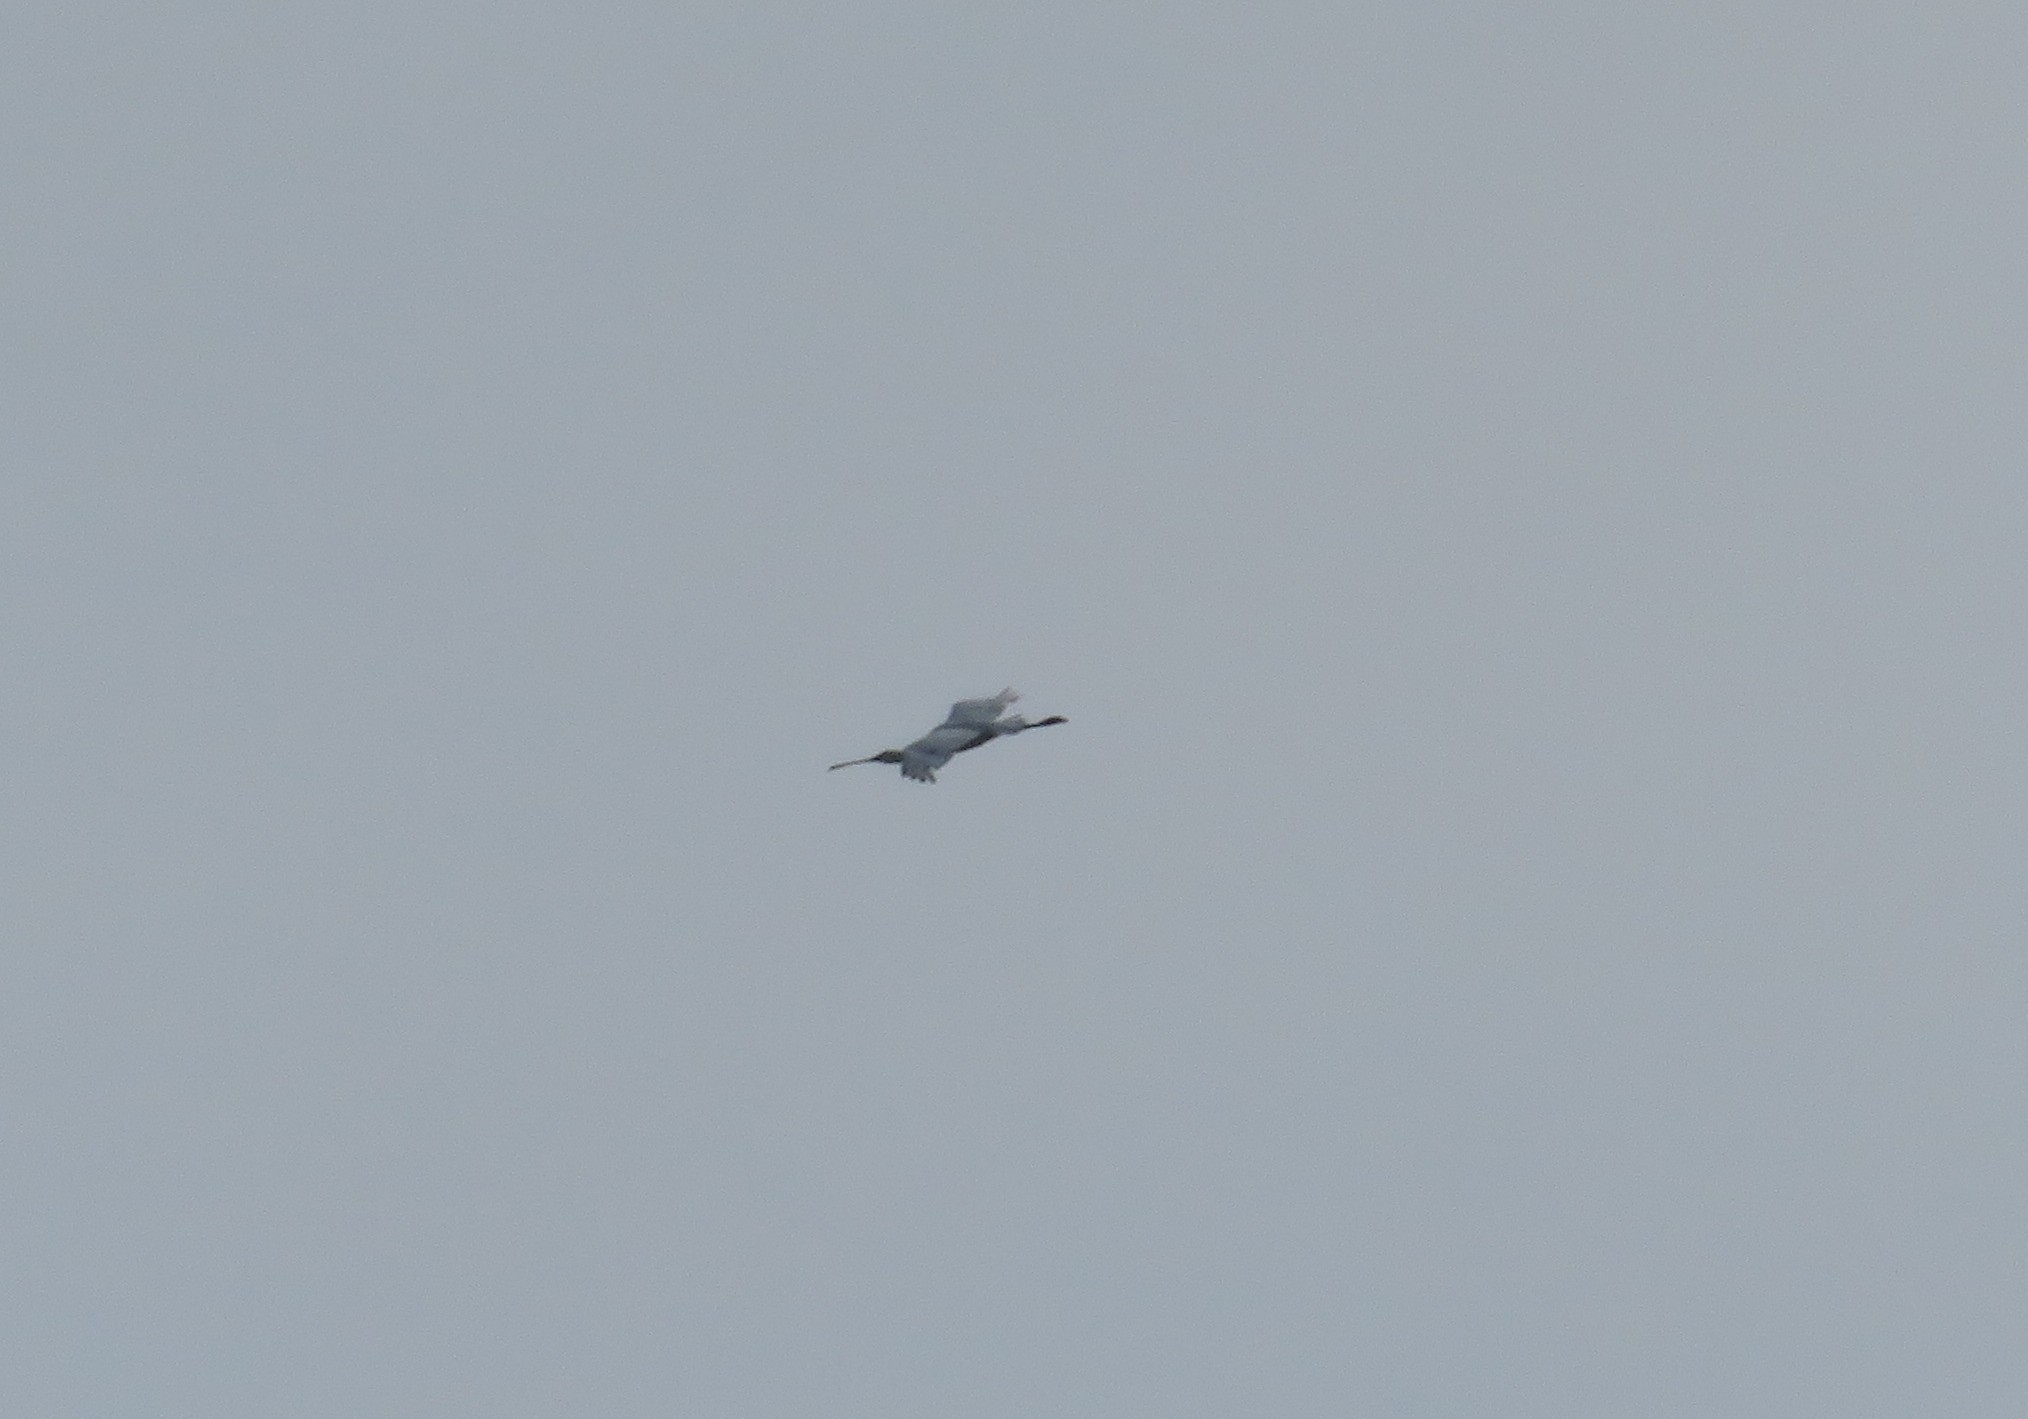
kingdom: Animalia
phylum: Chordata
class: Aves
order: Pelecaniformes
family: Threskiornithidae
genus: Platalea
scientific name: Platalea leucorodia
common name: Eurasian spoonbill
